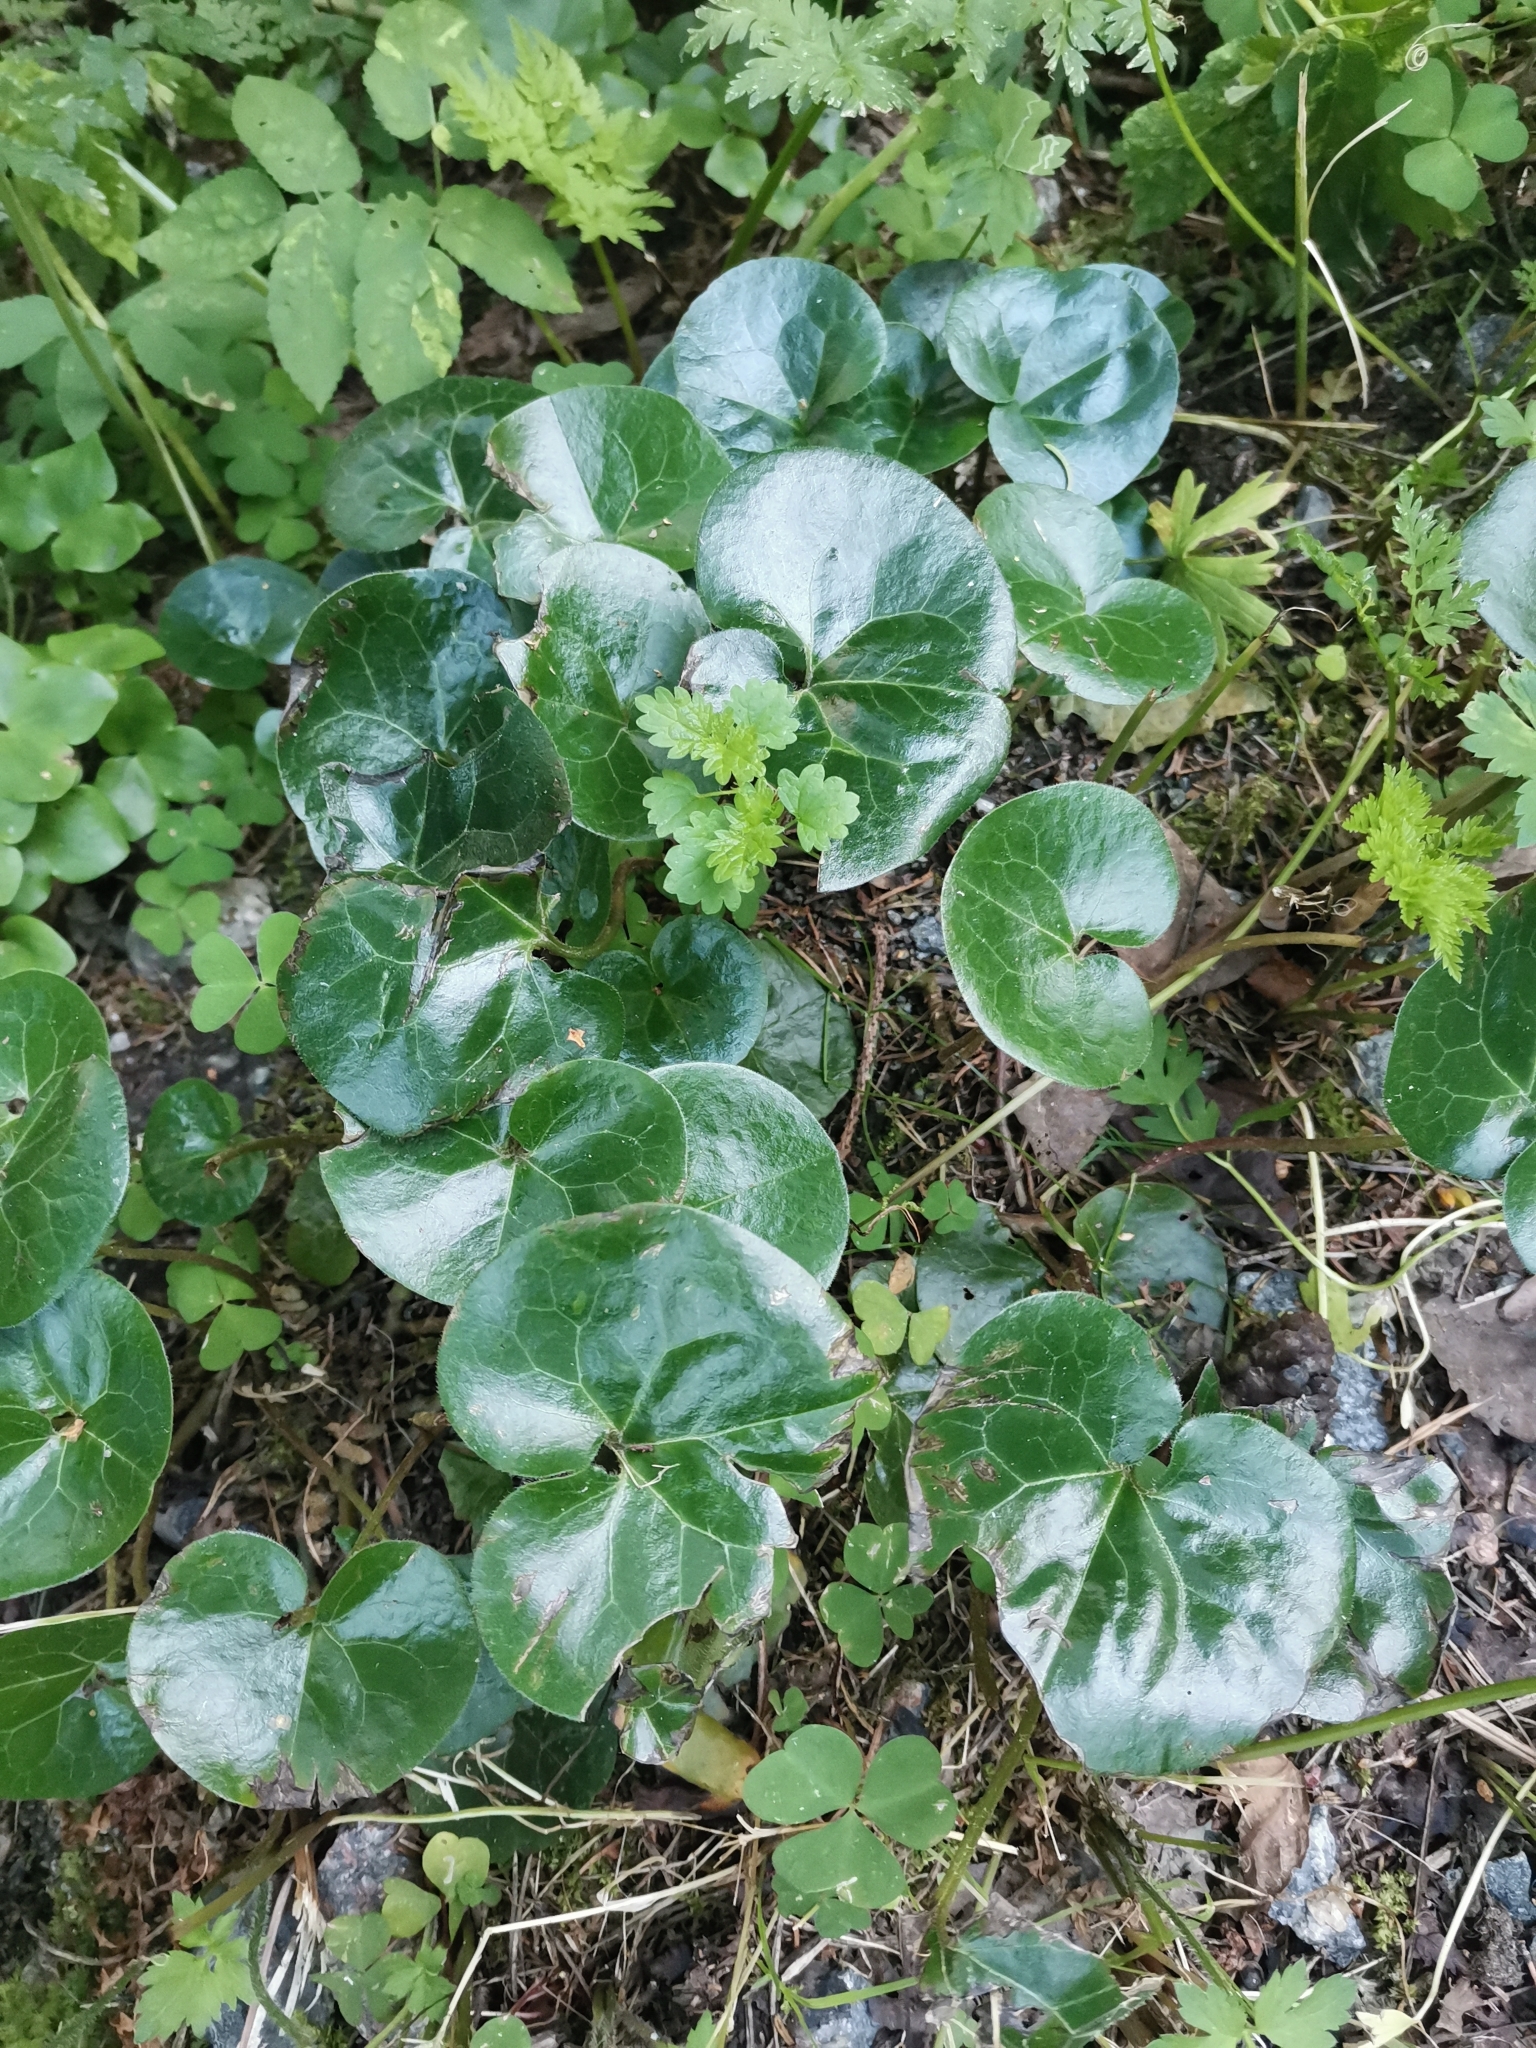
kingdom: Plantae
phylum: Tracheophyta
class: Magnoliopsida
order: Piperales
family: Aristolochiaceae
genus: Asarum
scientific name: Asarum europaeum
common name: Asarabacca
